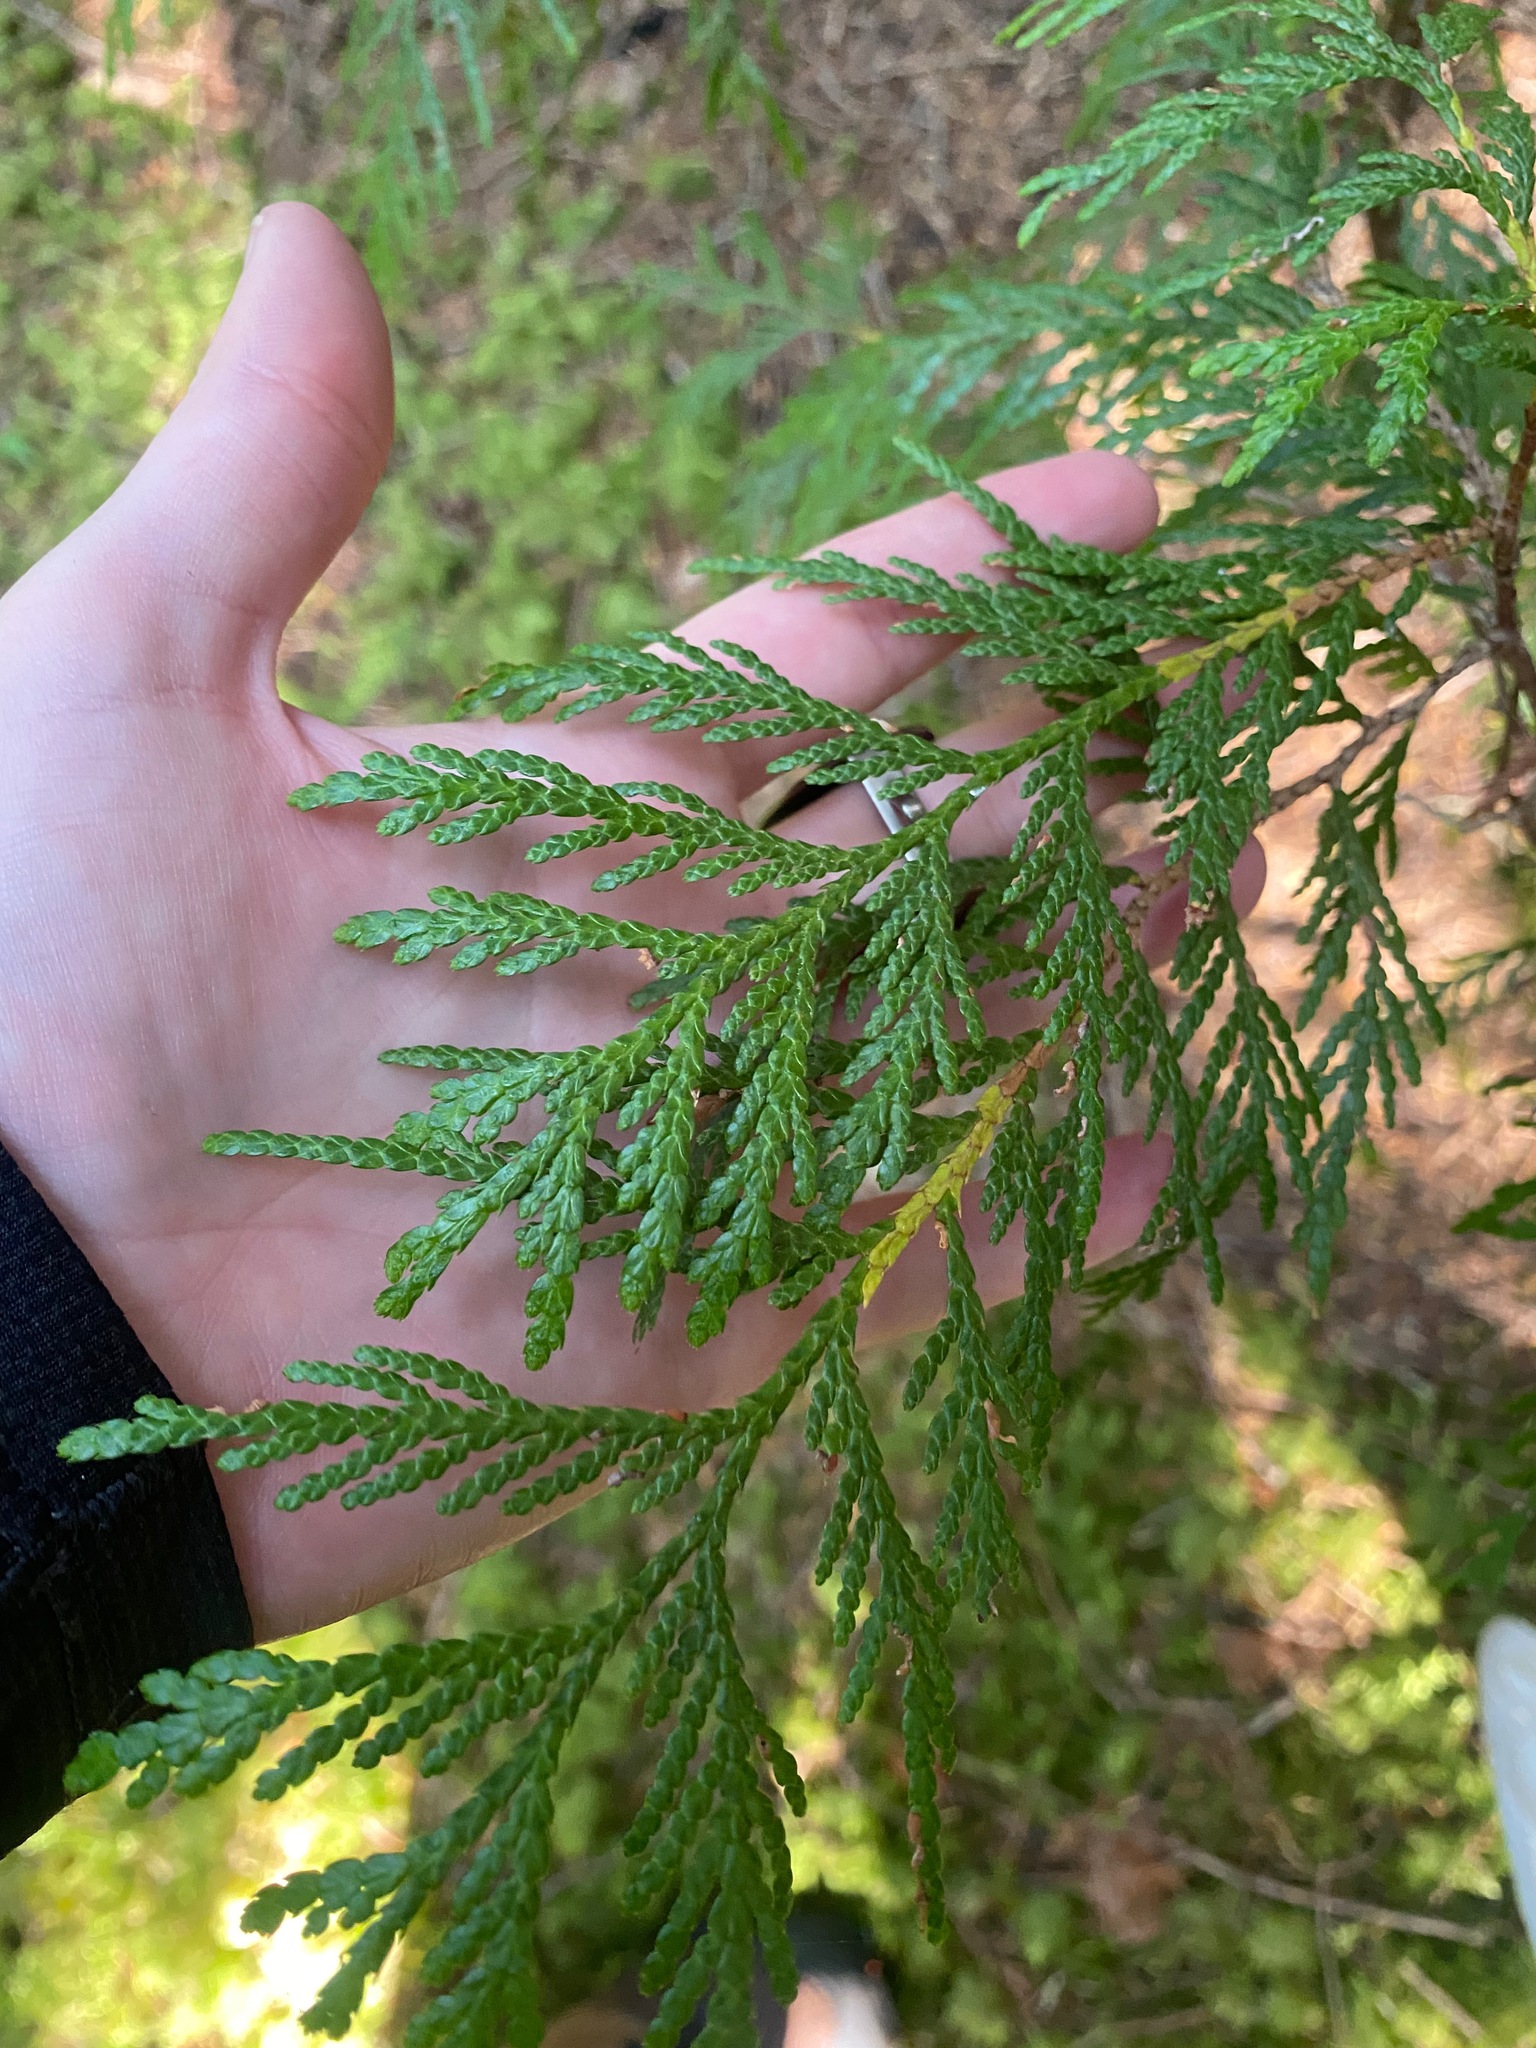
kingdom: Plantae
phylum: Tracheophyta
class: Pinopsida
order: Pinales
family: Cupressaceae
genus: Thuja
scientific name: Thuja plicata
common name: Western red-cedar
